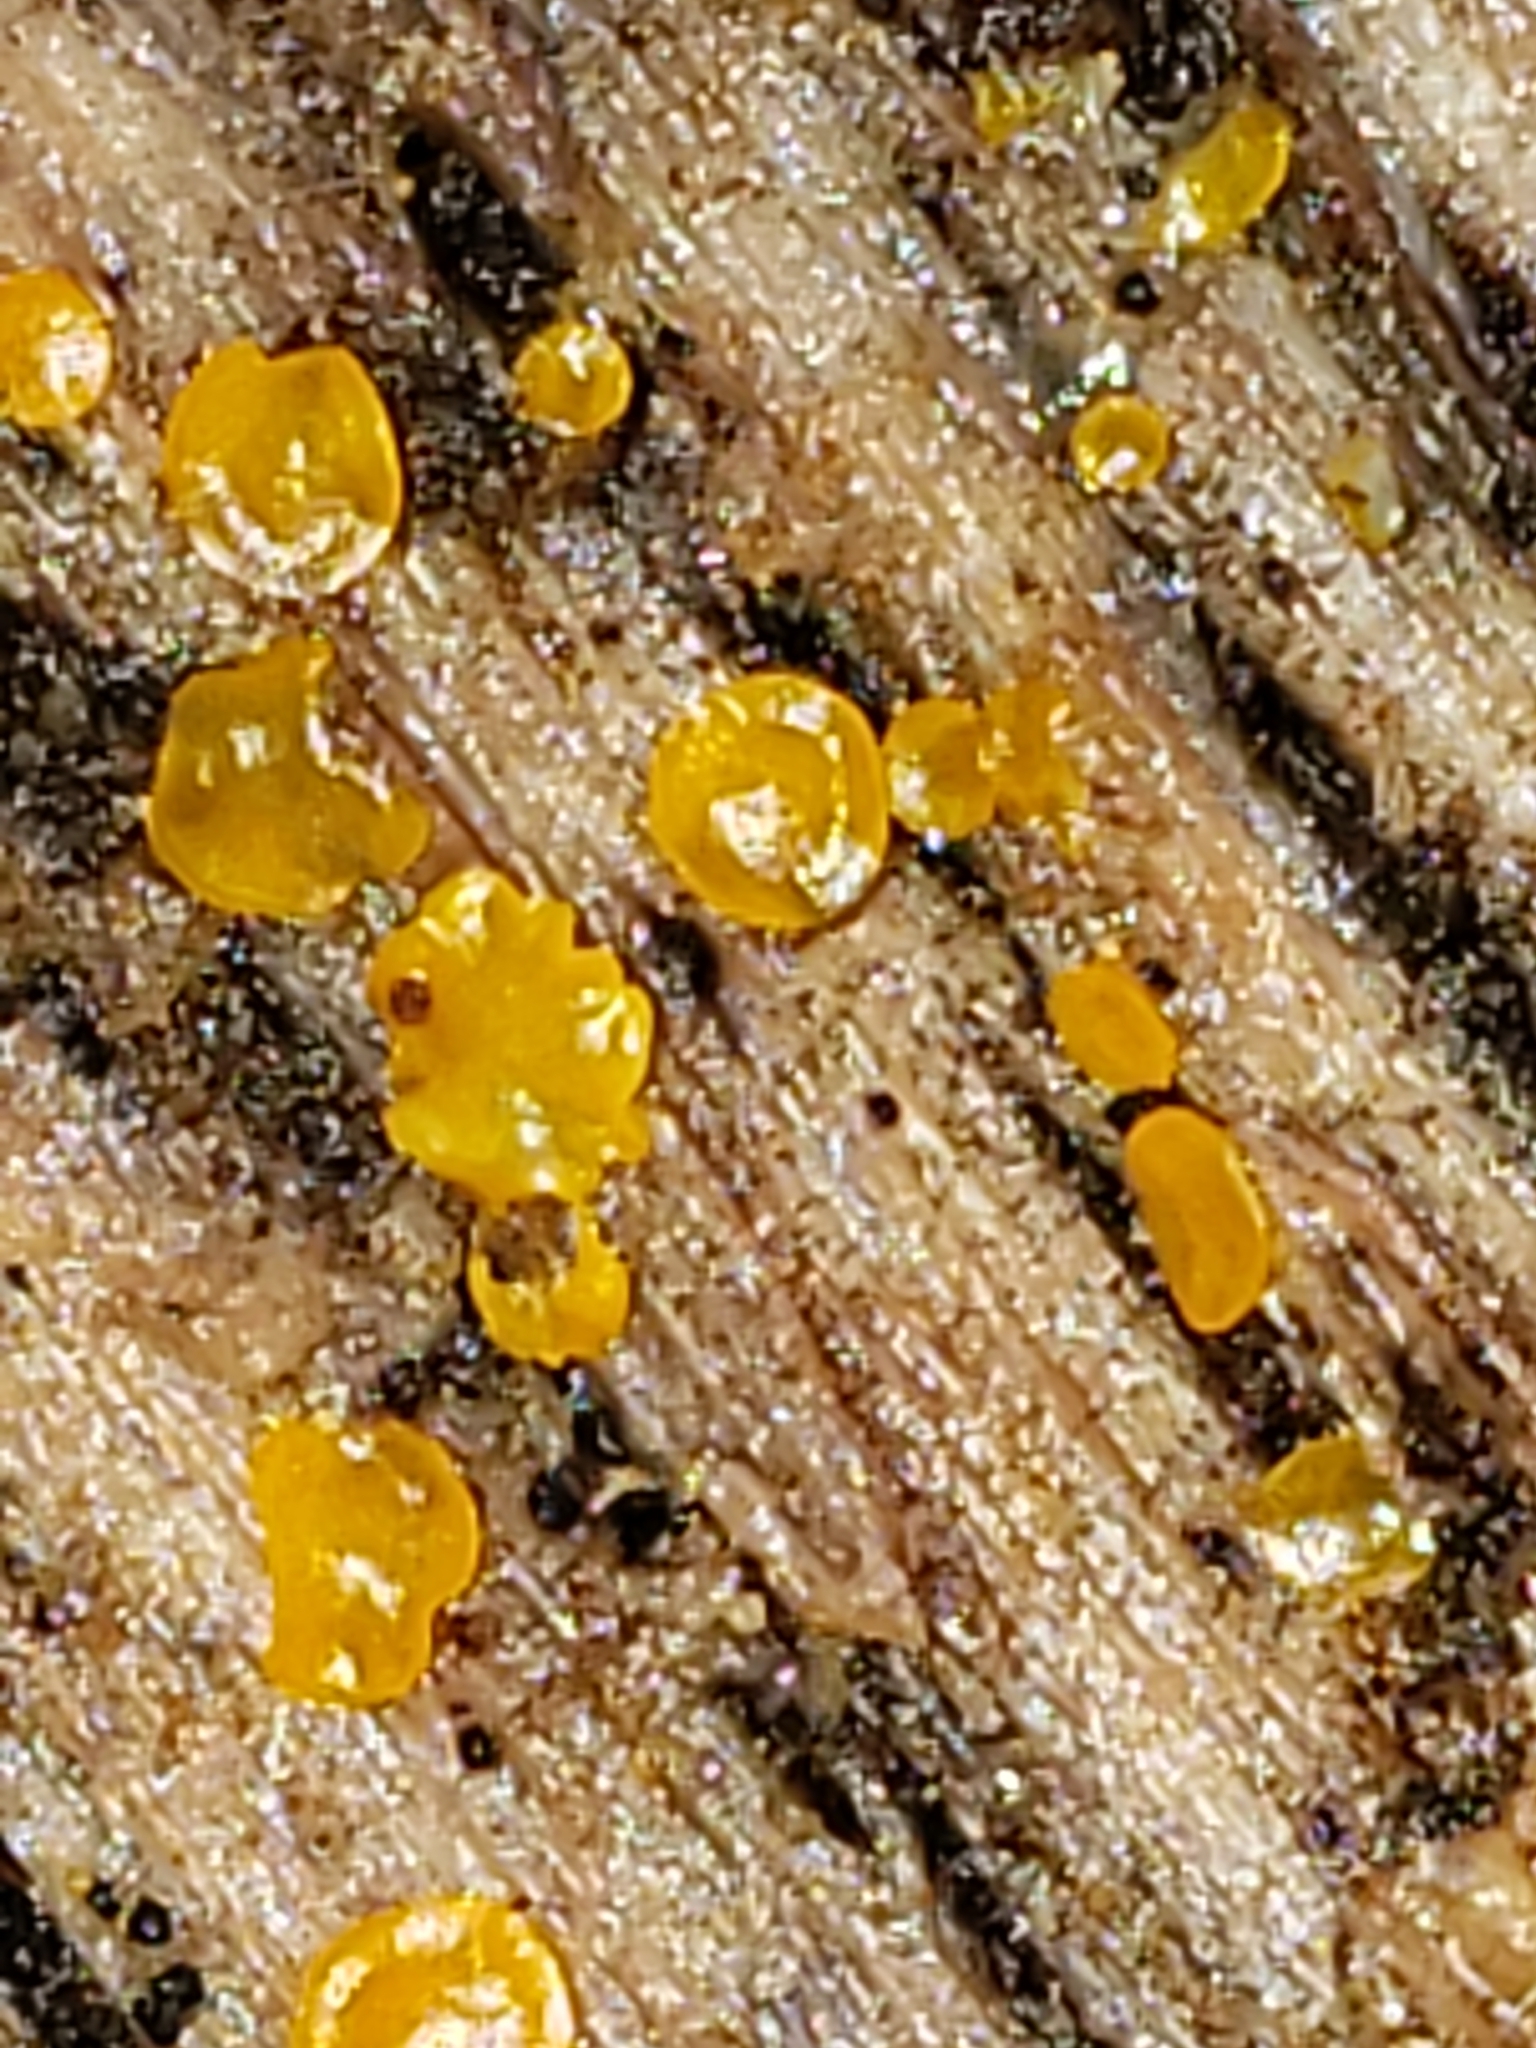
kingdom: Fungi
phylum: Ascomycota
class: Orbiliomycetes
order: Orbiliales
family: Orbiliaceae
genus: Orbilia
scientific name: Orbilia xanthostigma
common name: Common glasscup
